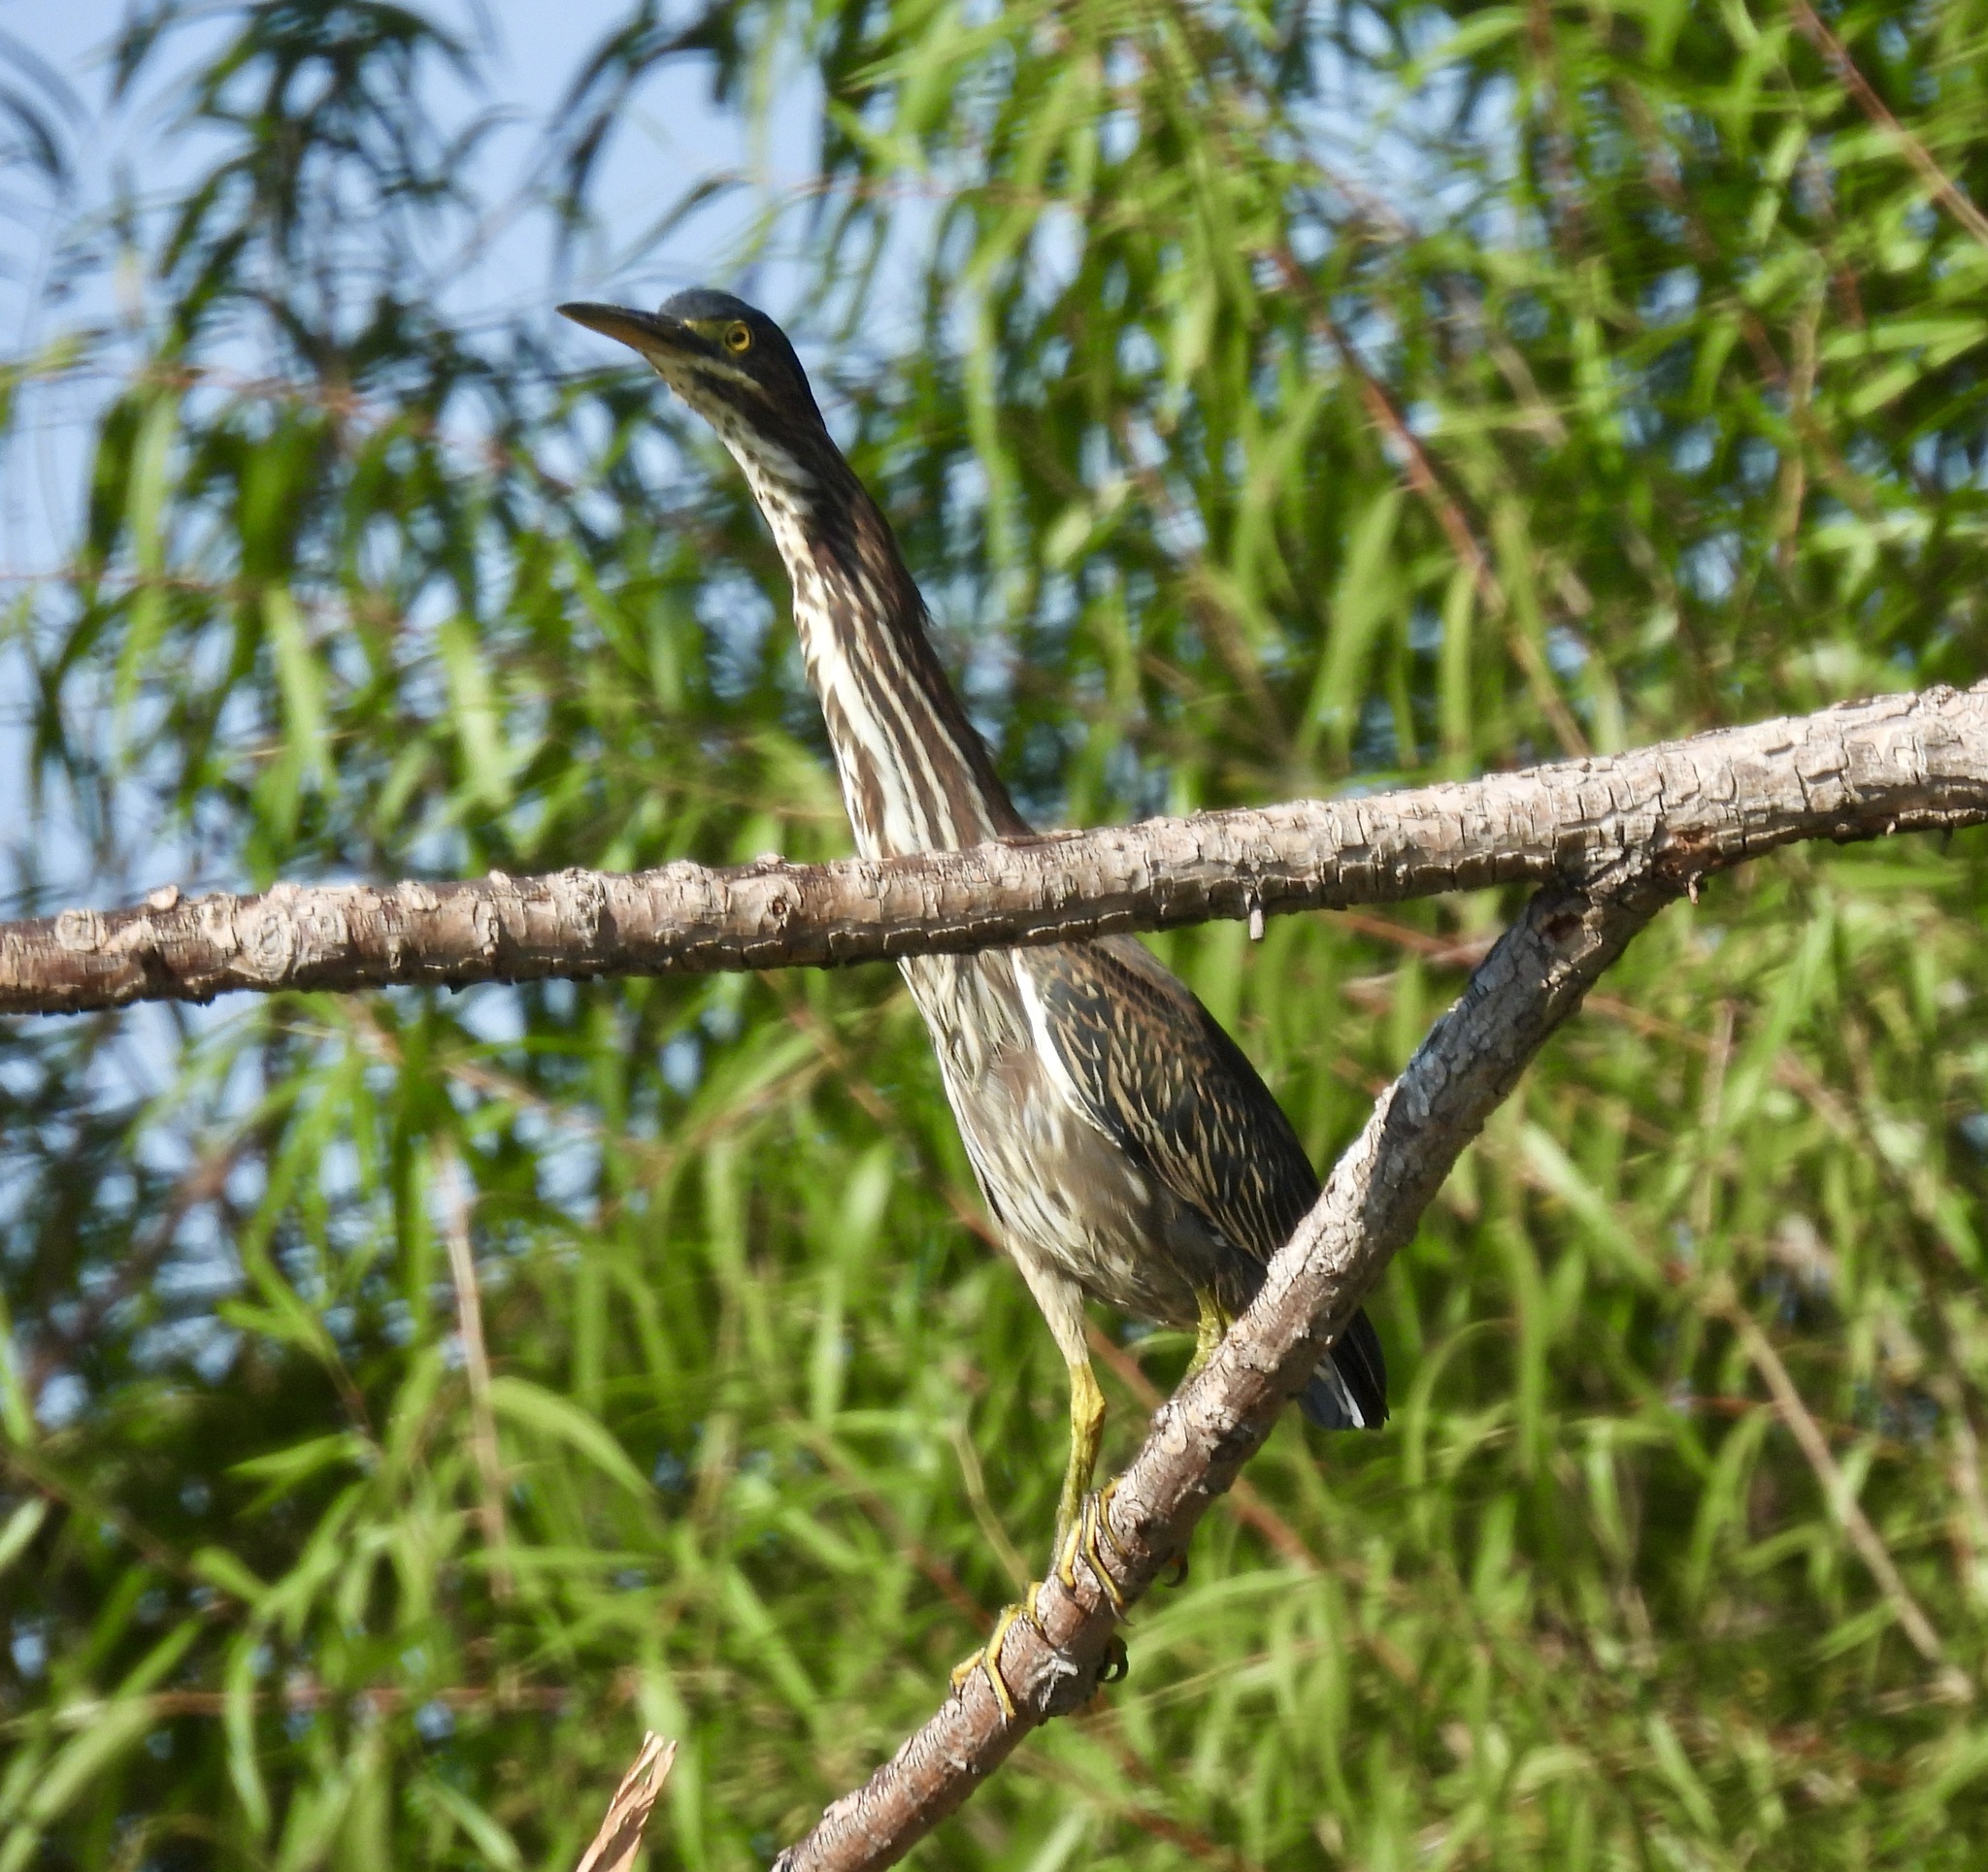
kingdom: Animalia
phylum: Chordata
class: Aves
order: Pelecaniformes
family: Ardeidae
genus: Butorides
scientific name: Butorides virescens
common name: Green heron
